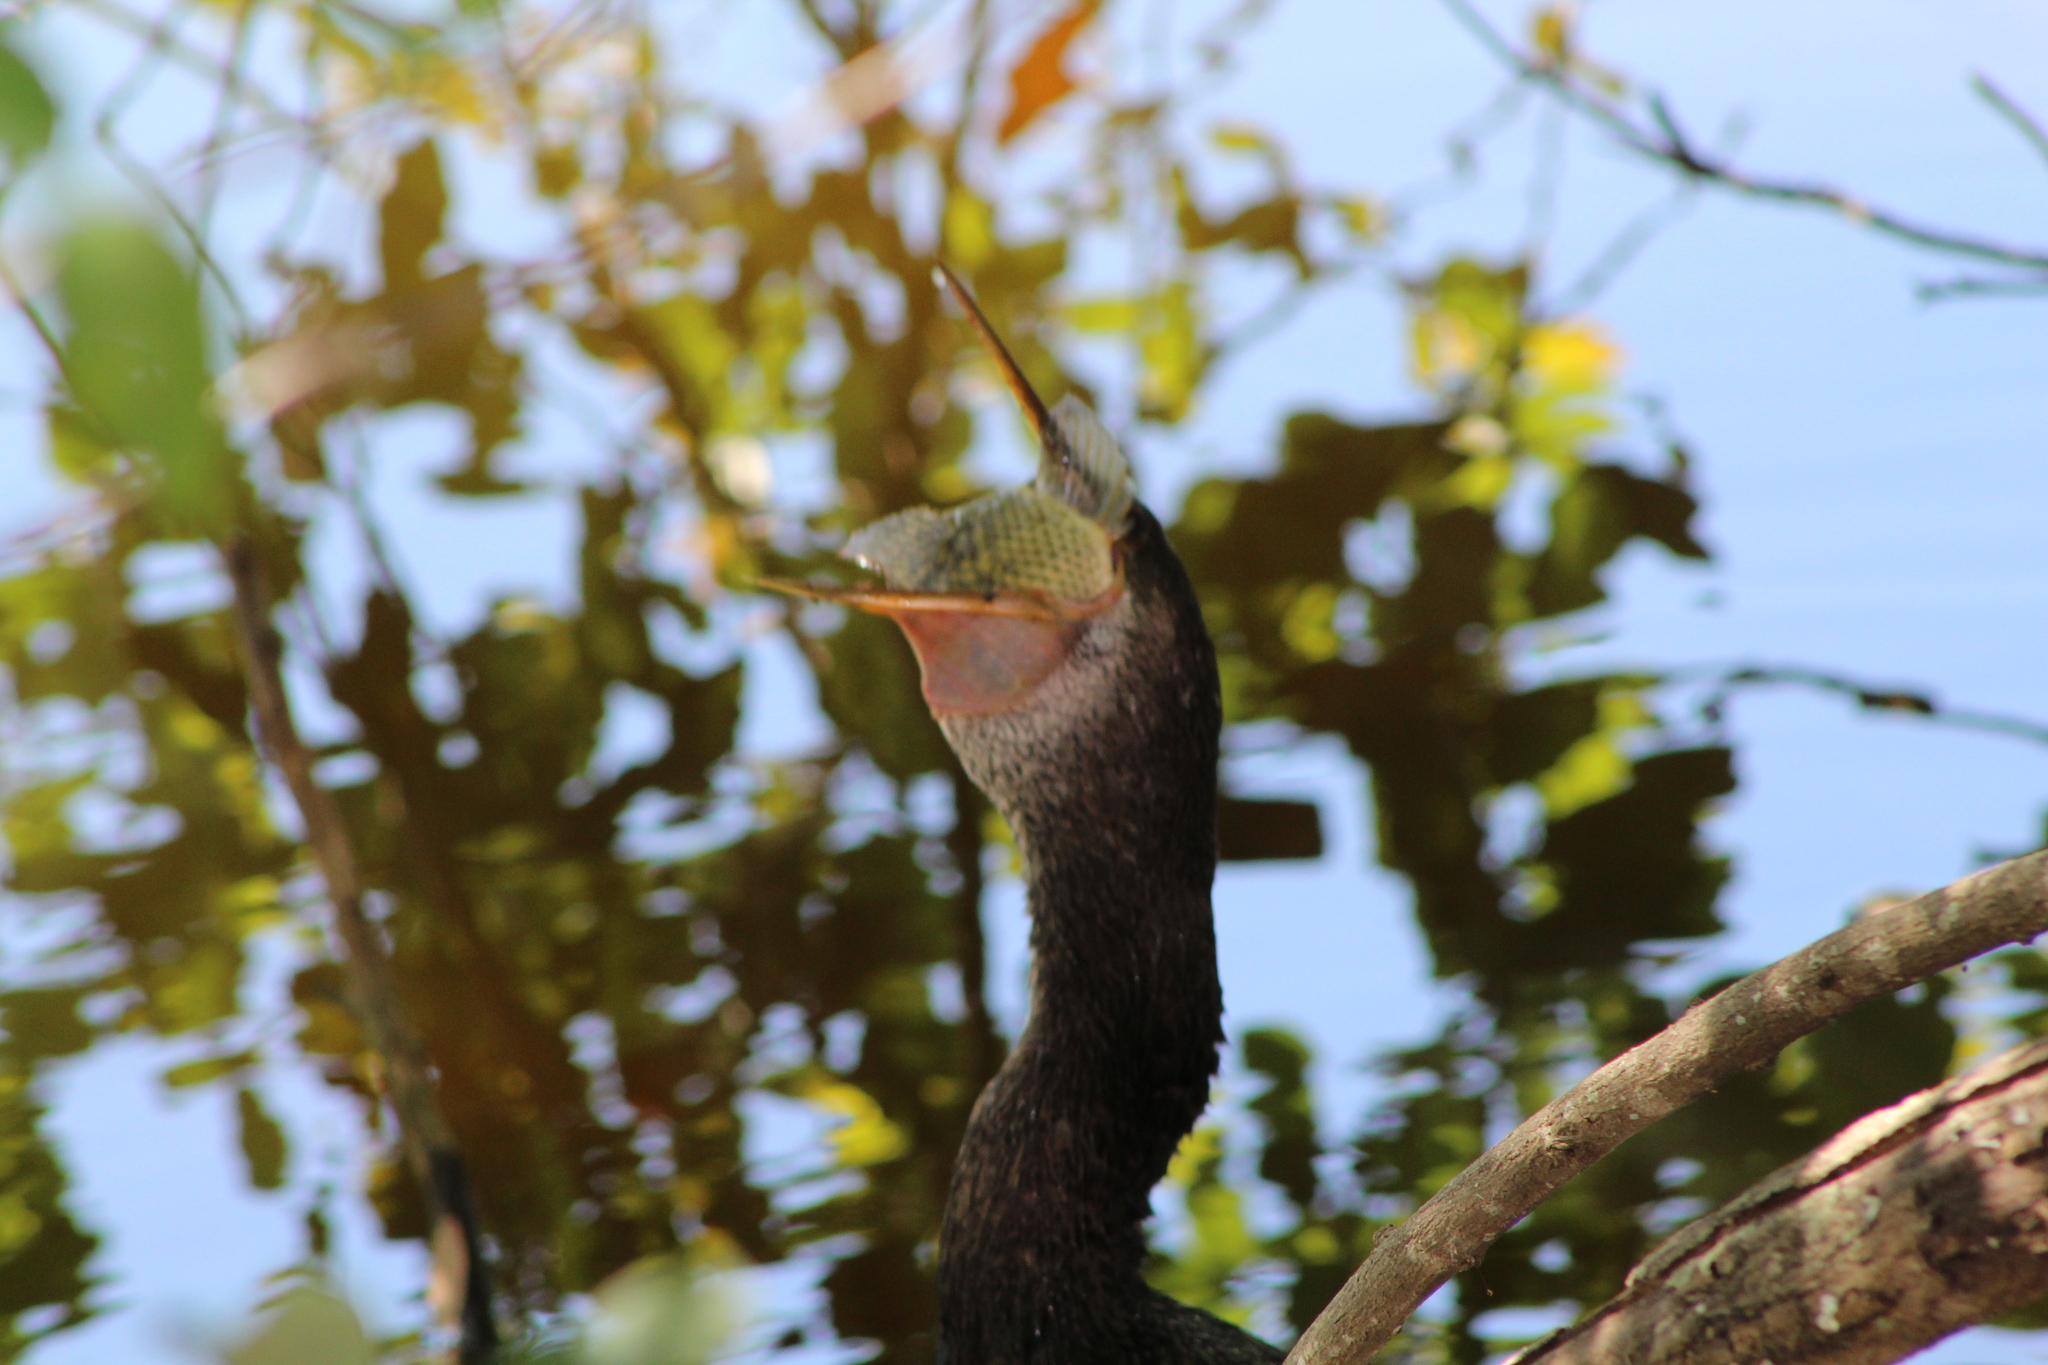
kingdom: Animalia
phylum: Chordata
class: Aves
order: Suliformes
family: Anhingidae
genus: Anhinga
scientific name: Anhinga anhinga
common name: Anhinga
